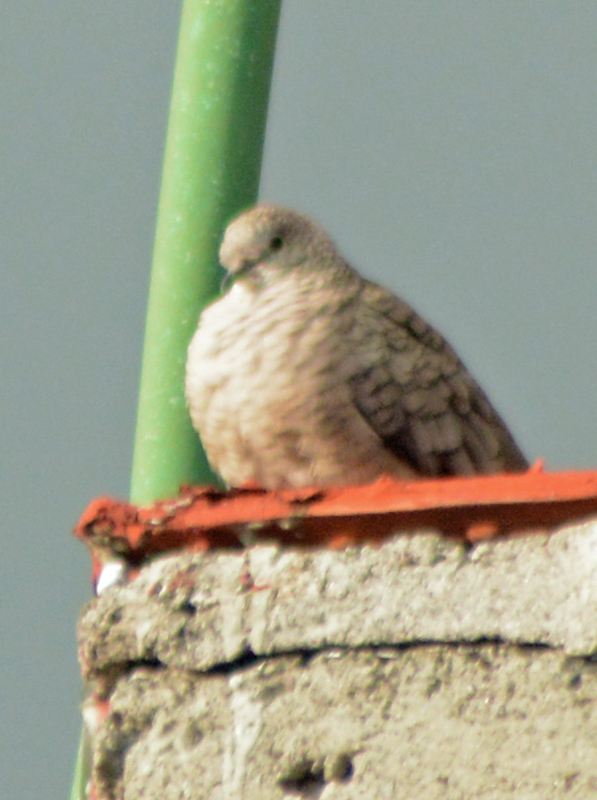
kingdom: Animalia
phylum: Chordata
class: Aves
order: Columbiformes
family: Columbidae
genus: Columbina
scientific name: Columbina inca
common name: Inca dove
